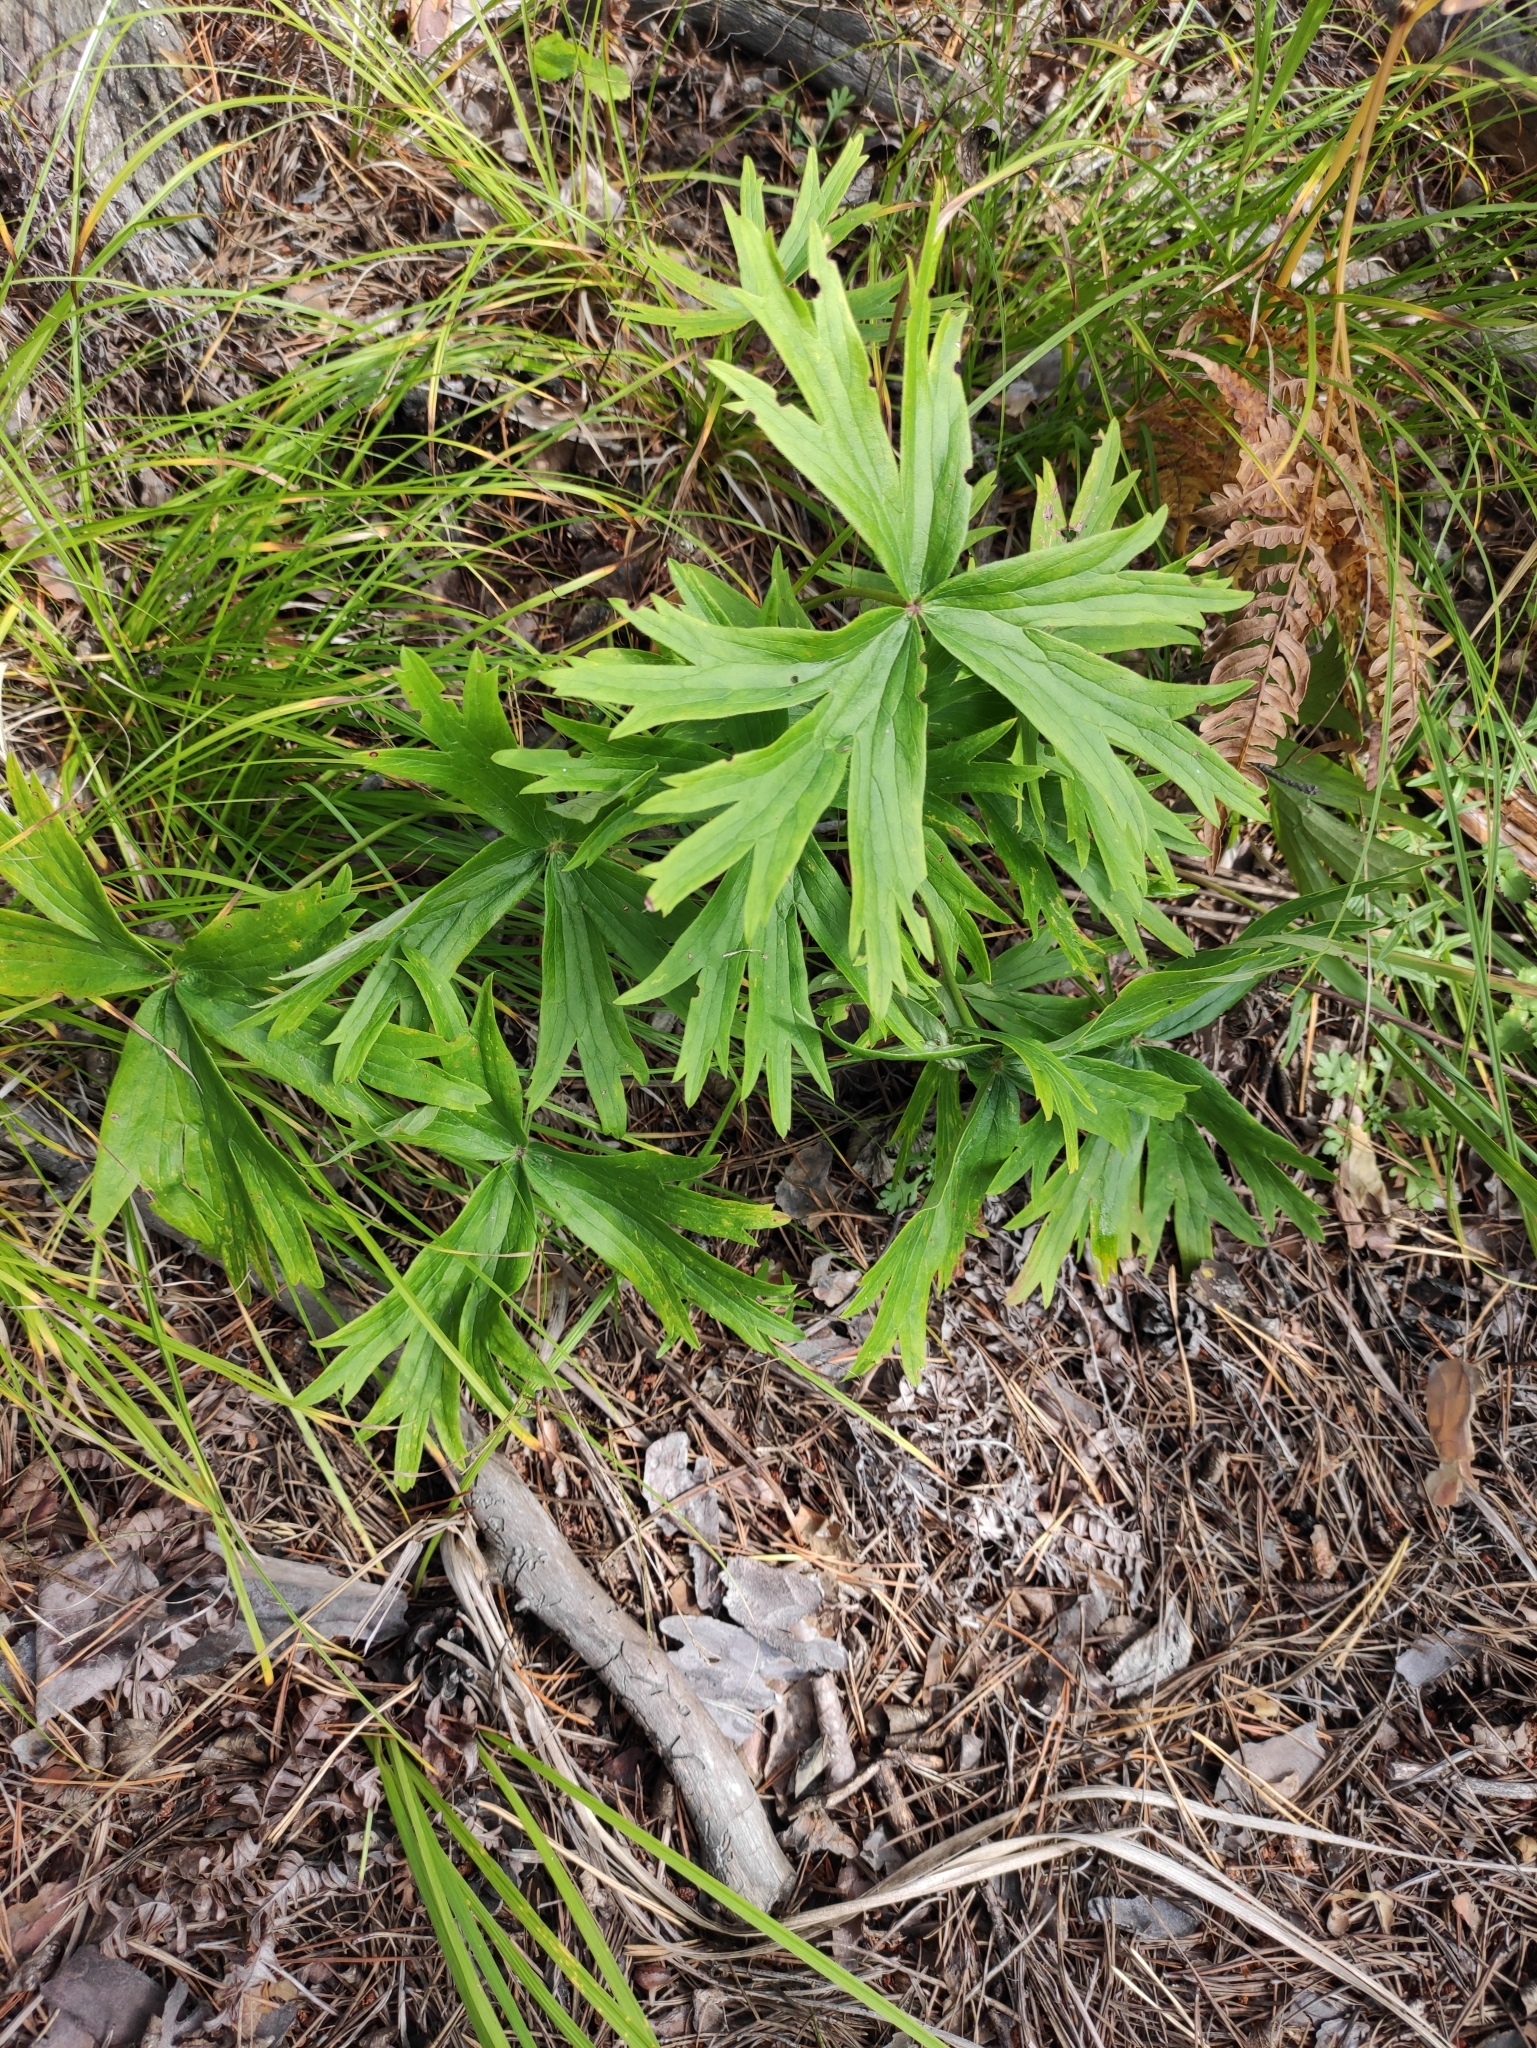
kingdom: Plantae
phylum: Tracheophyta
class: Magnoliopsida
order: Ranunculales
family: Ranunculaceae
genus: Pulsatilla
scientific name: Pulsatilla patens
